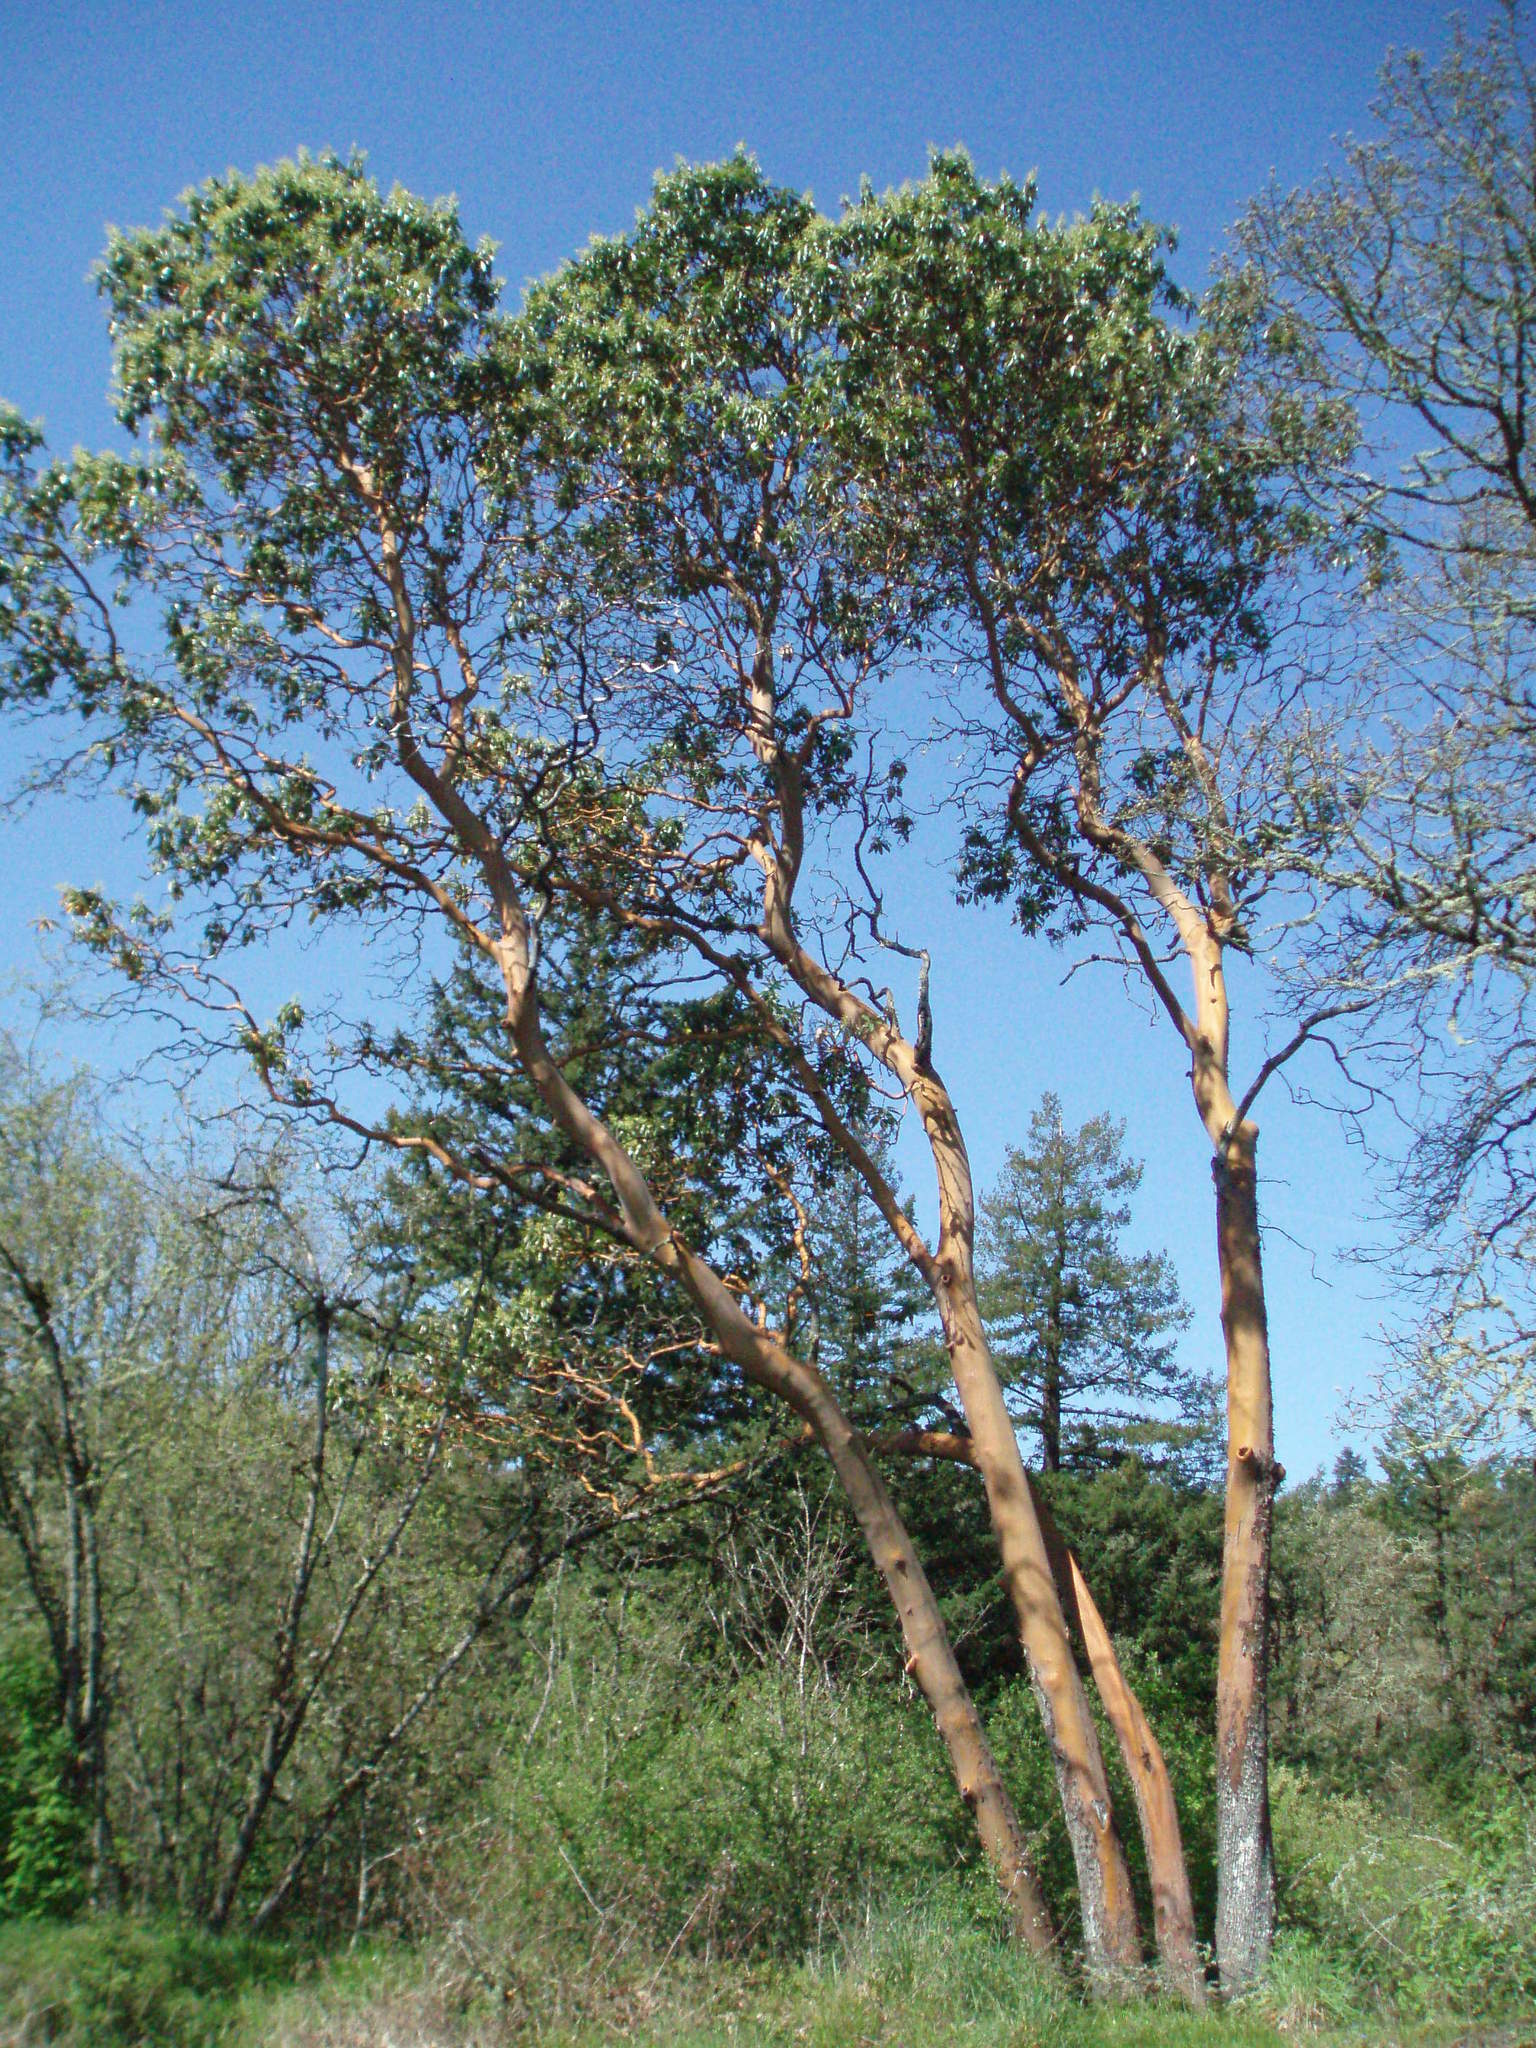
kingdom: Plantae
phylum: Tracheophyta
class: Magnoliopsida
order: Ericales
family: Ericaceae
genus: Arbutus
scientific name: Arbutus menziesii
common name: Pacific madrone
